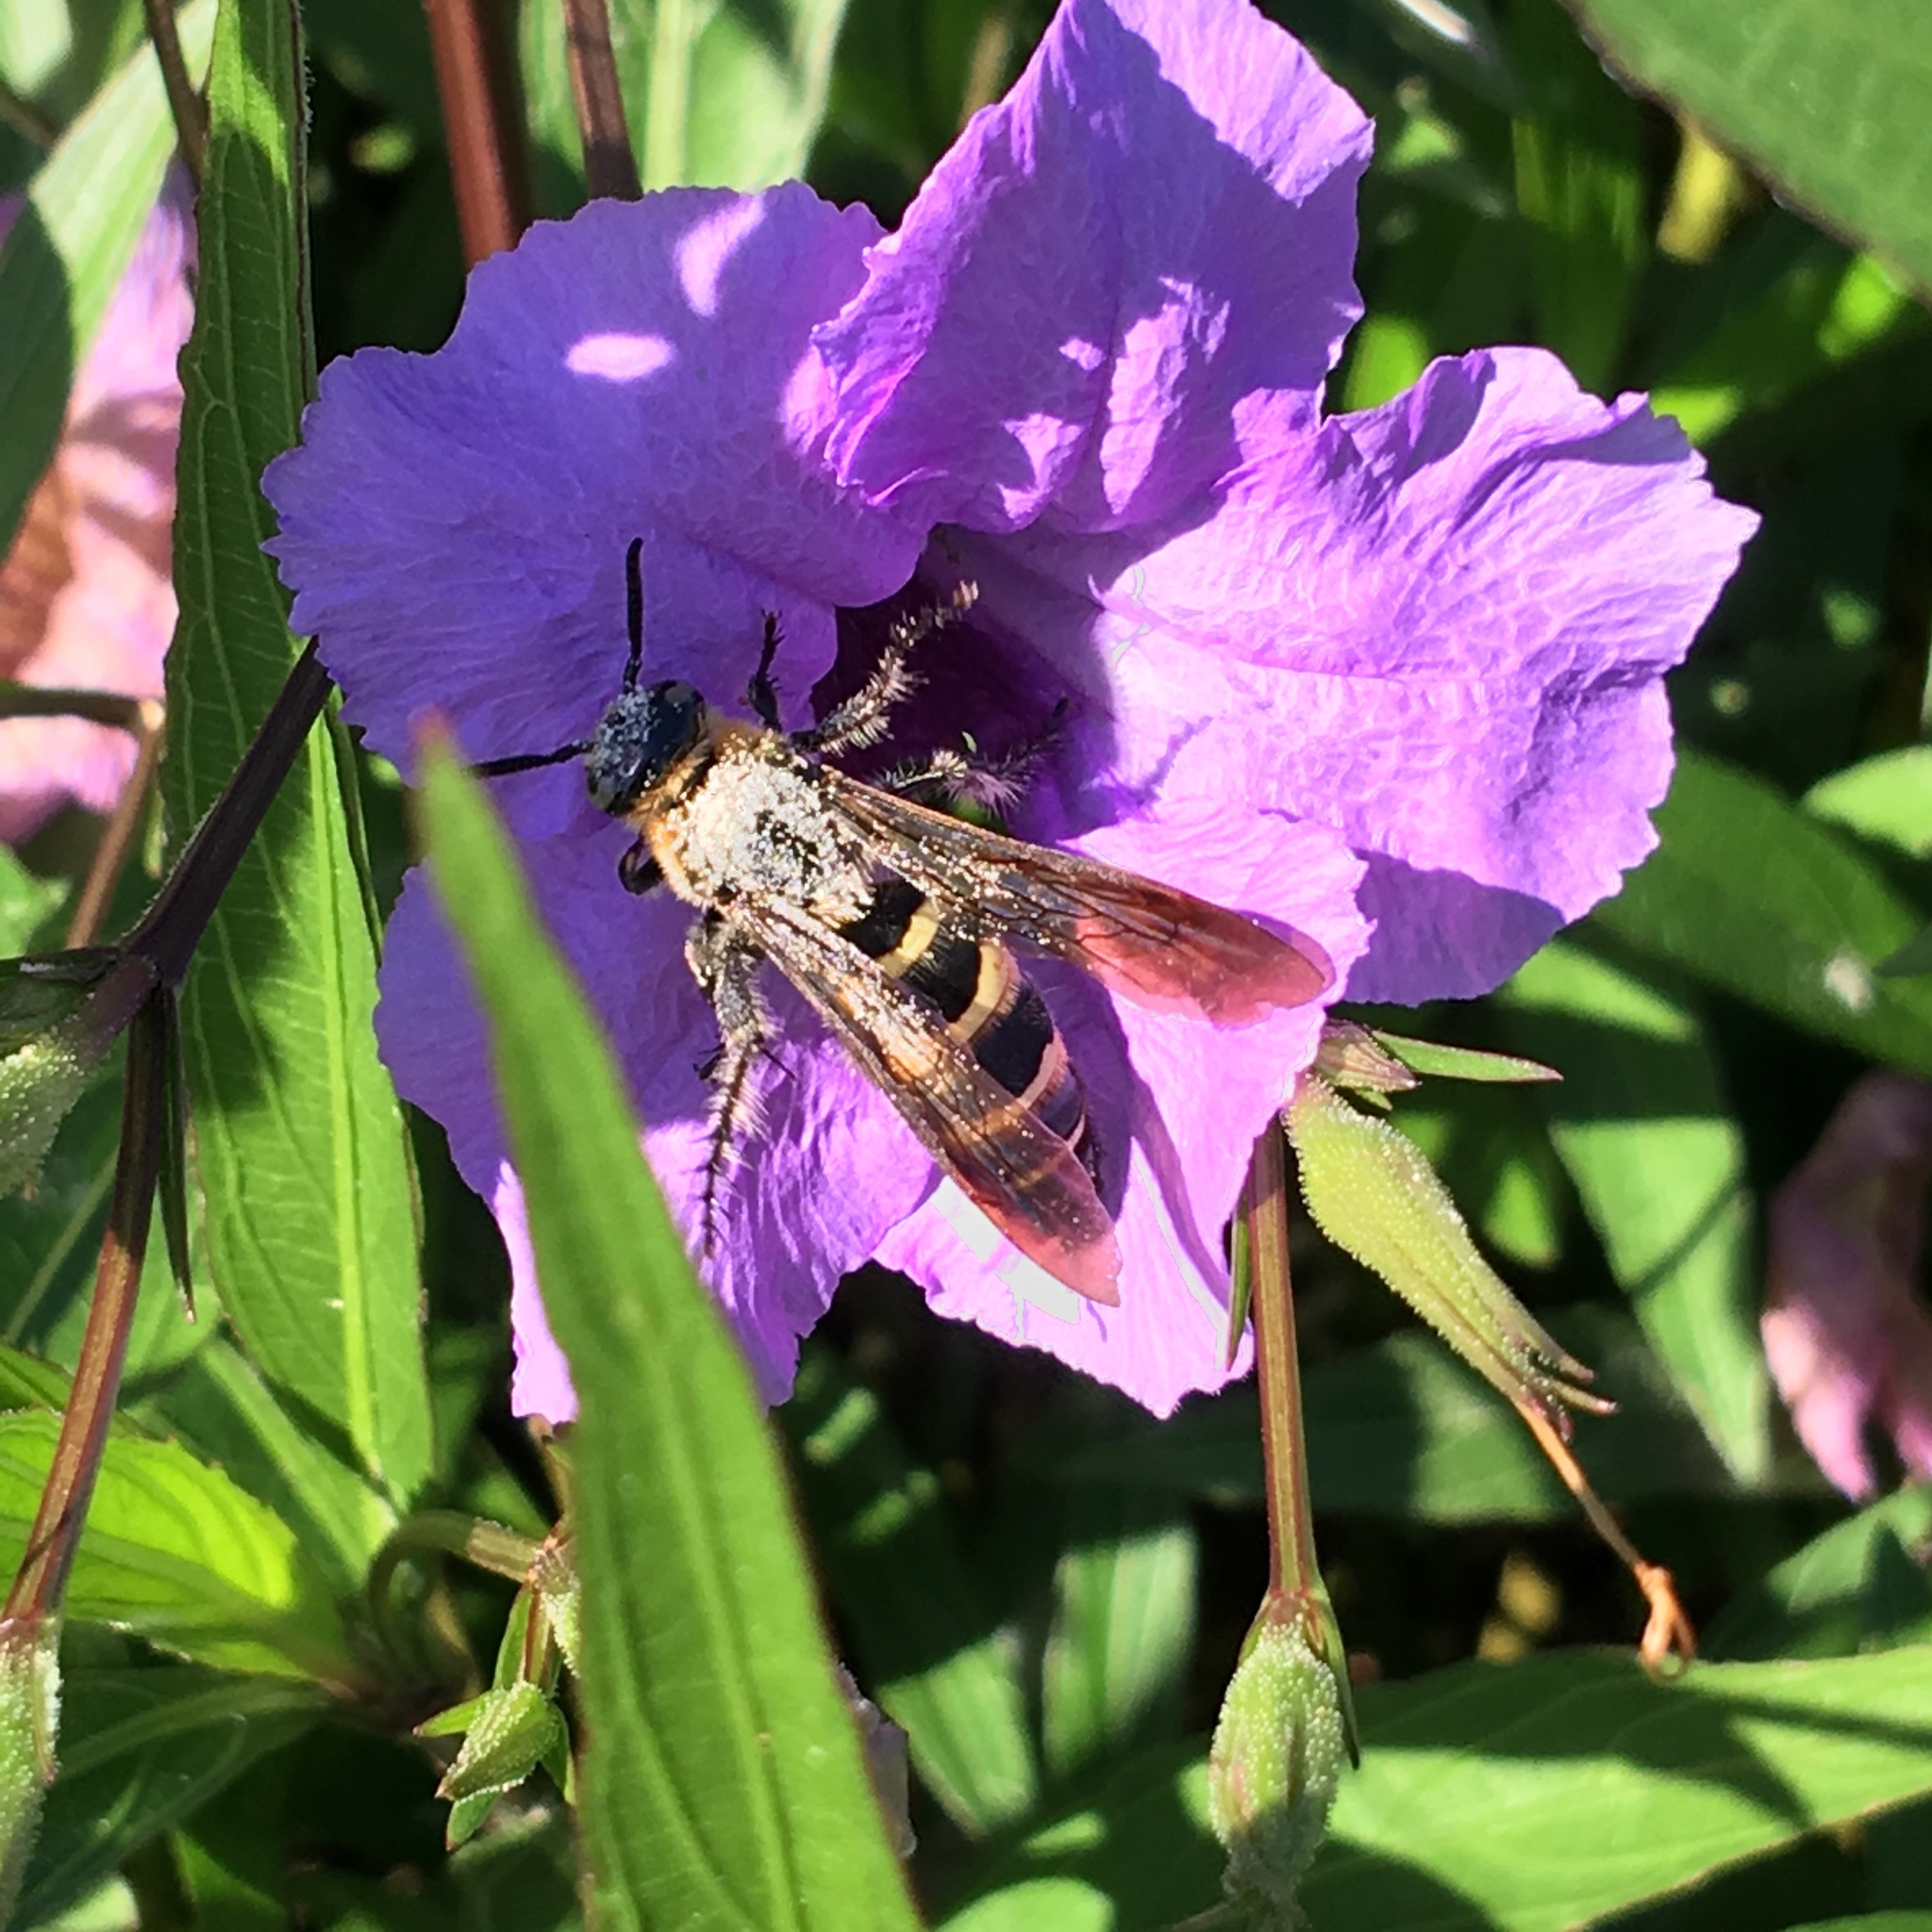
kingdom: Animalia
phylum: Arthropoda
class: Insecta
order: Hymenoptera
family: Scoliidae
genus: Dielis
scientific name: Dielis
